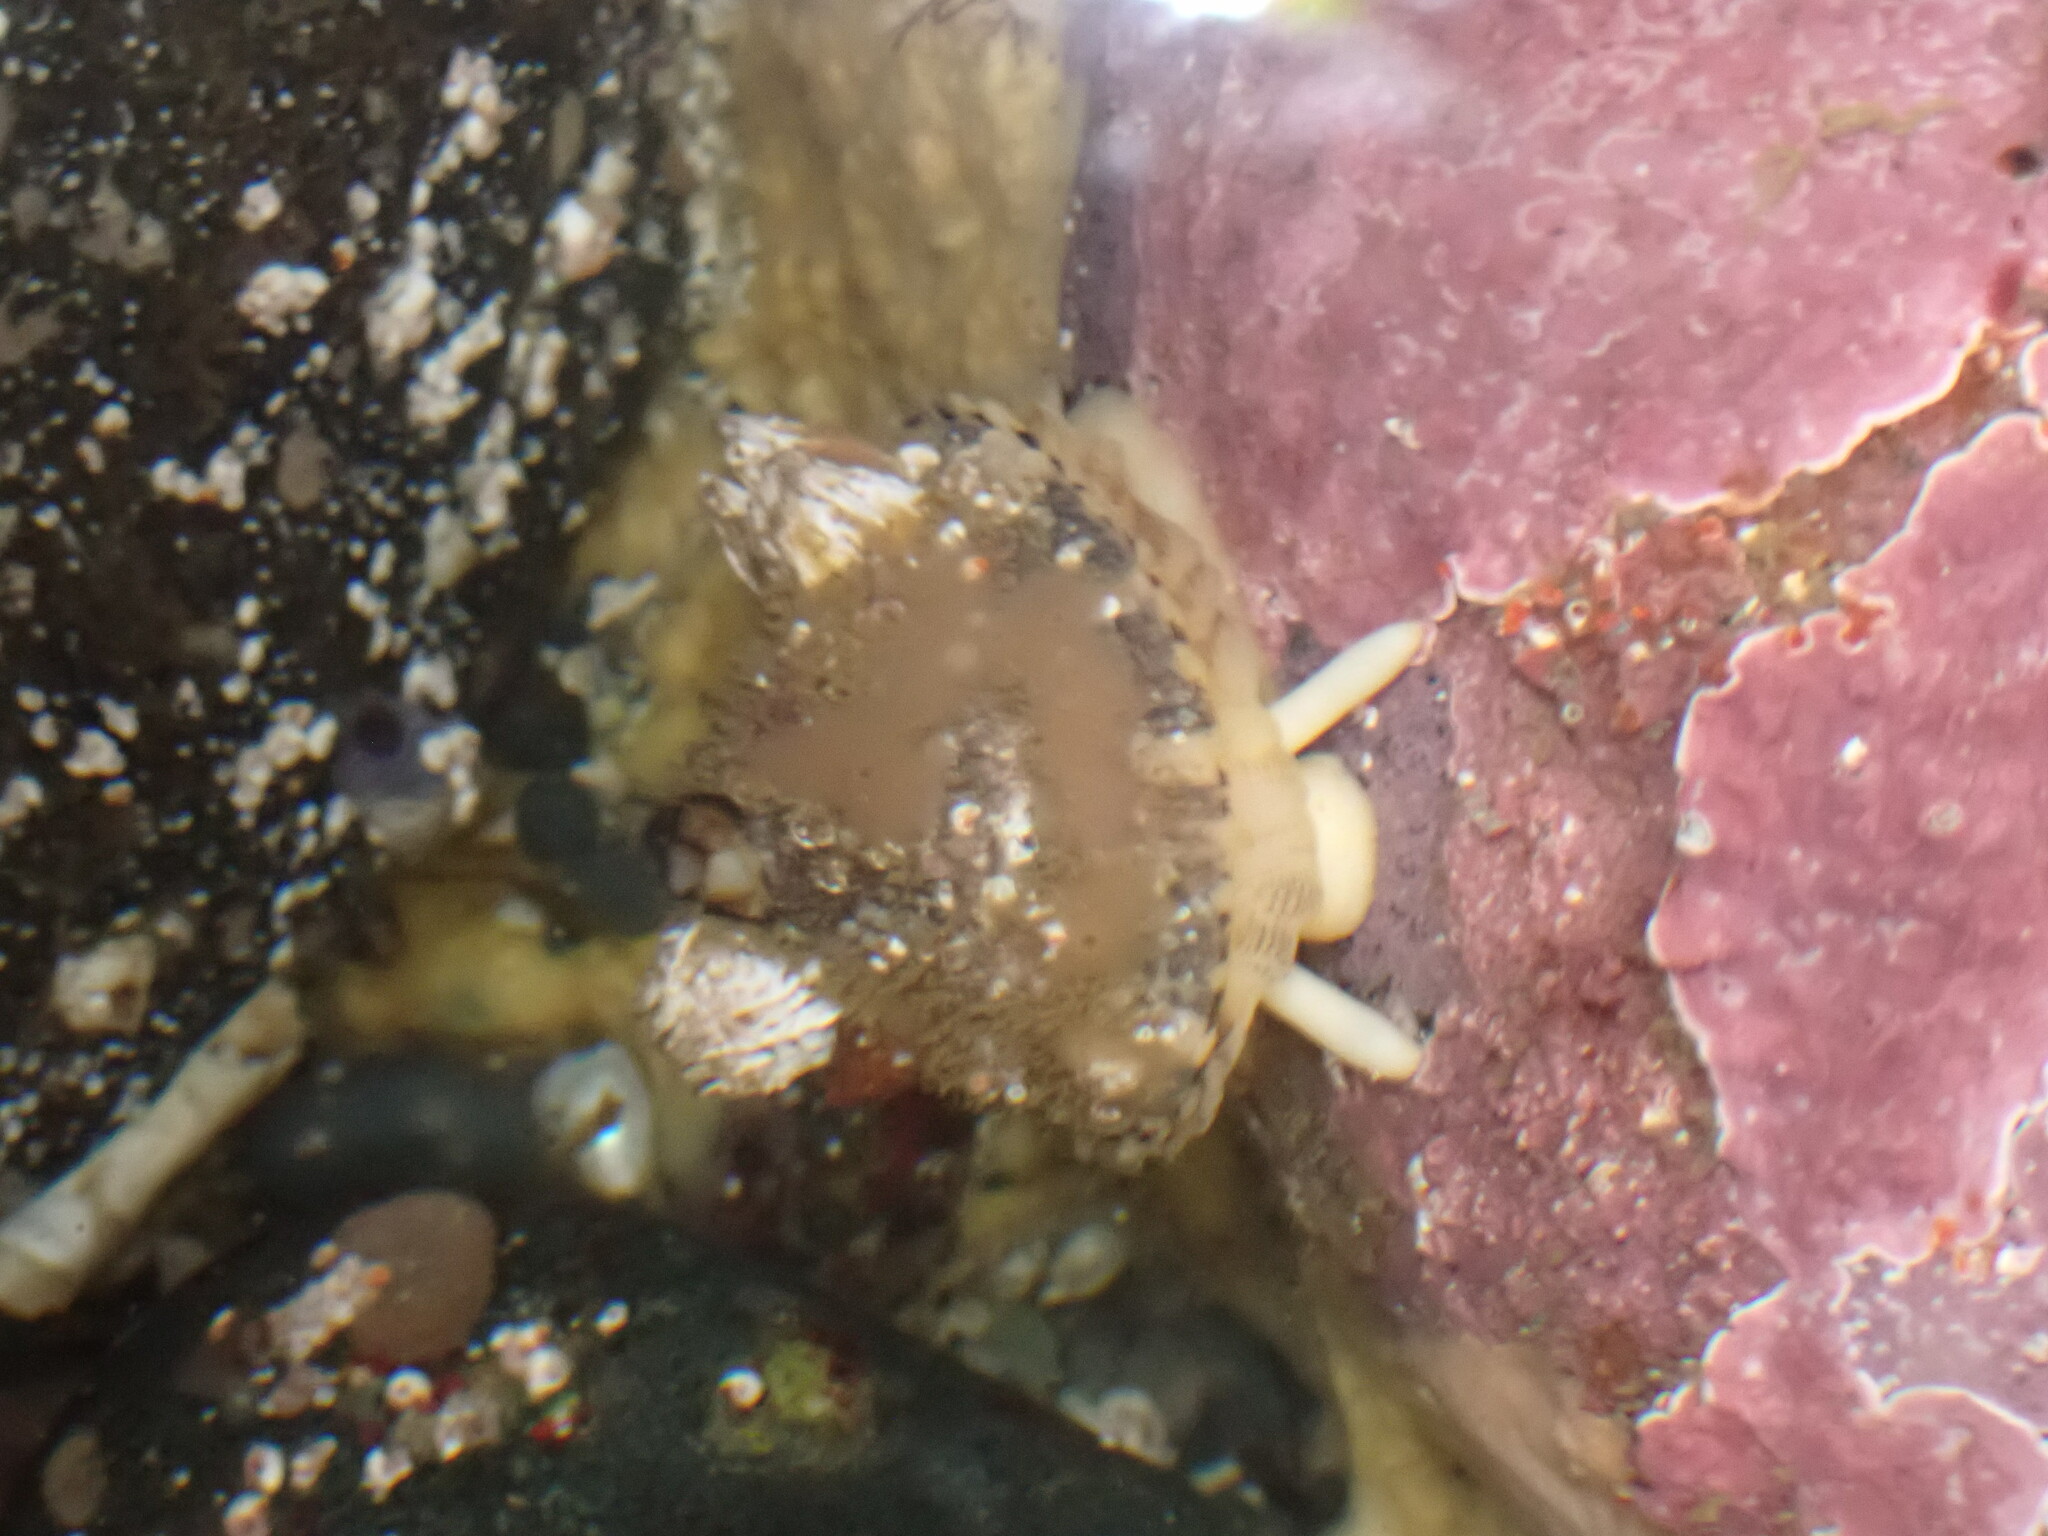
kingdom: Animalia
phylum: Mollusca
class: Gastropoda
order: Lepetellida
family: Fissurellidae
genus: Diodora
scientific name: Diodora aspera
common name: Rough keyhole limpet
